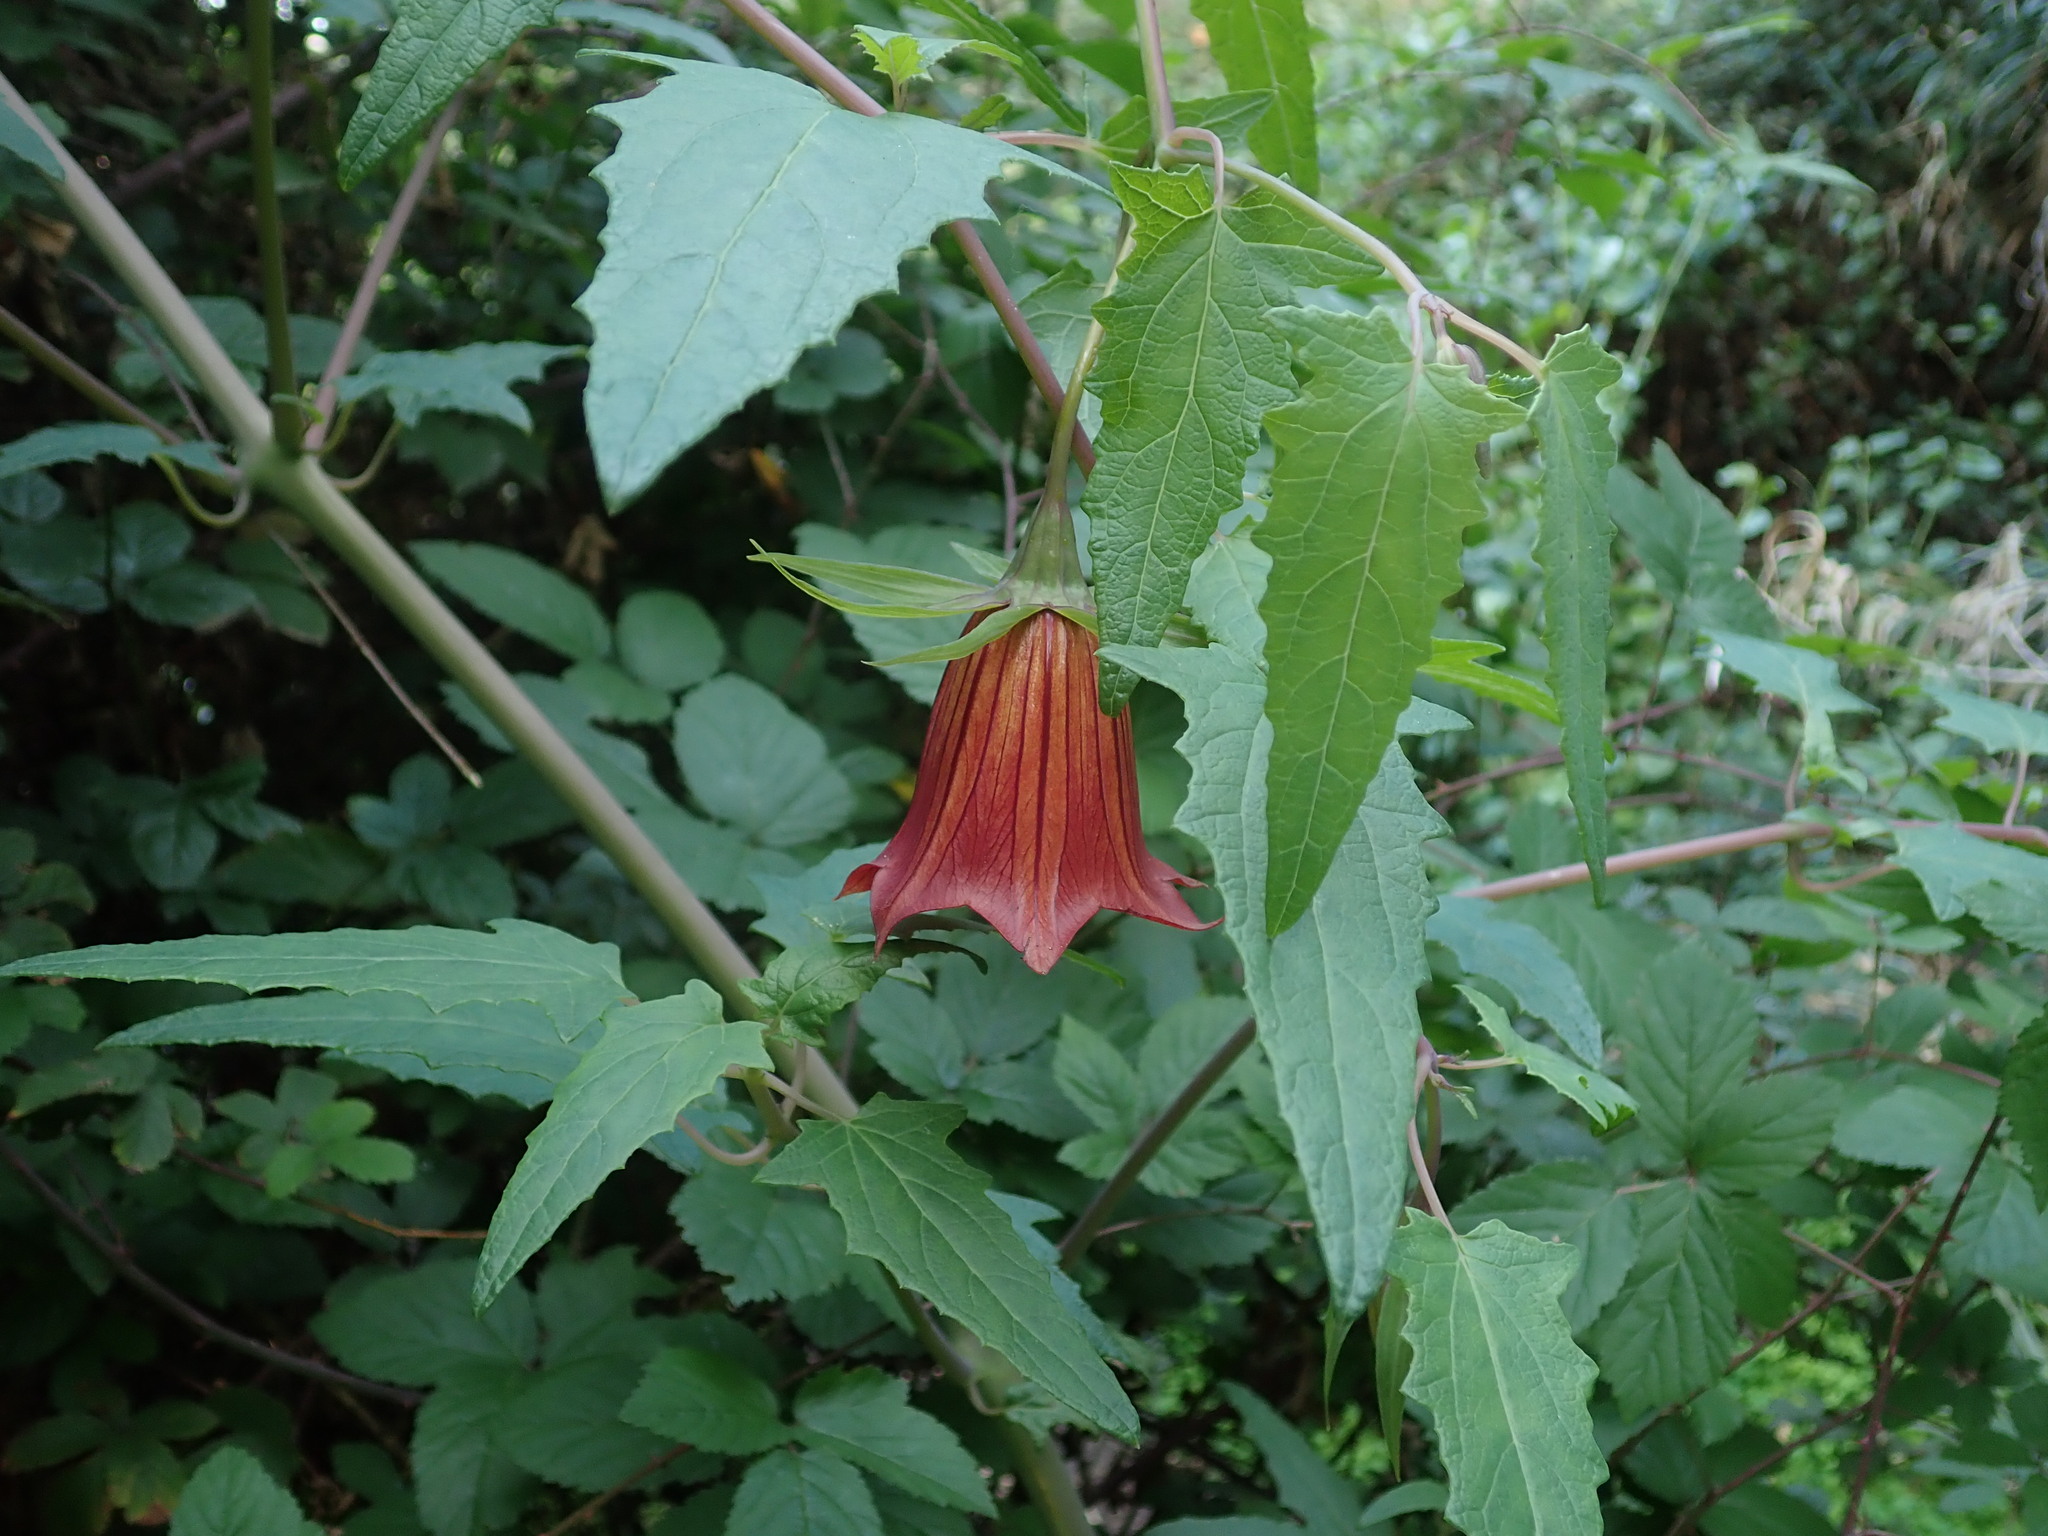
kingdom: Plantae
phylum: Tracheophyta
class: Magnoliopsida
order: Asterales
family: Campanulaceae
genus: Canarina
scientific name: Canarina canariensis
